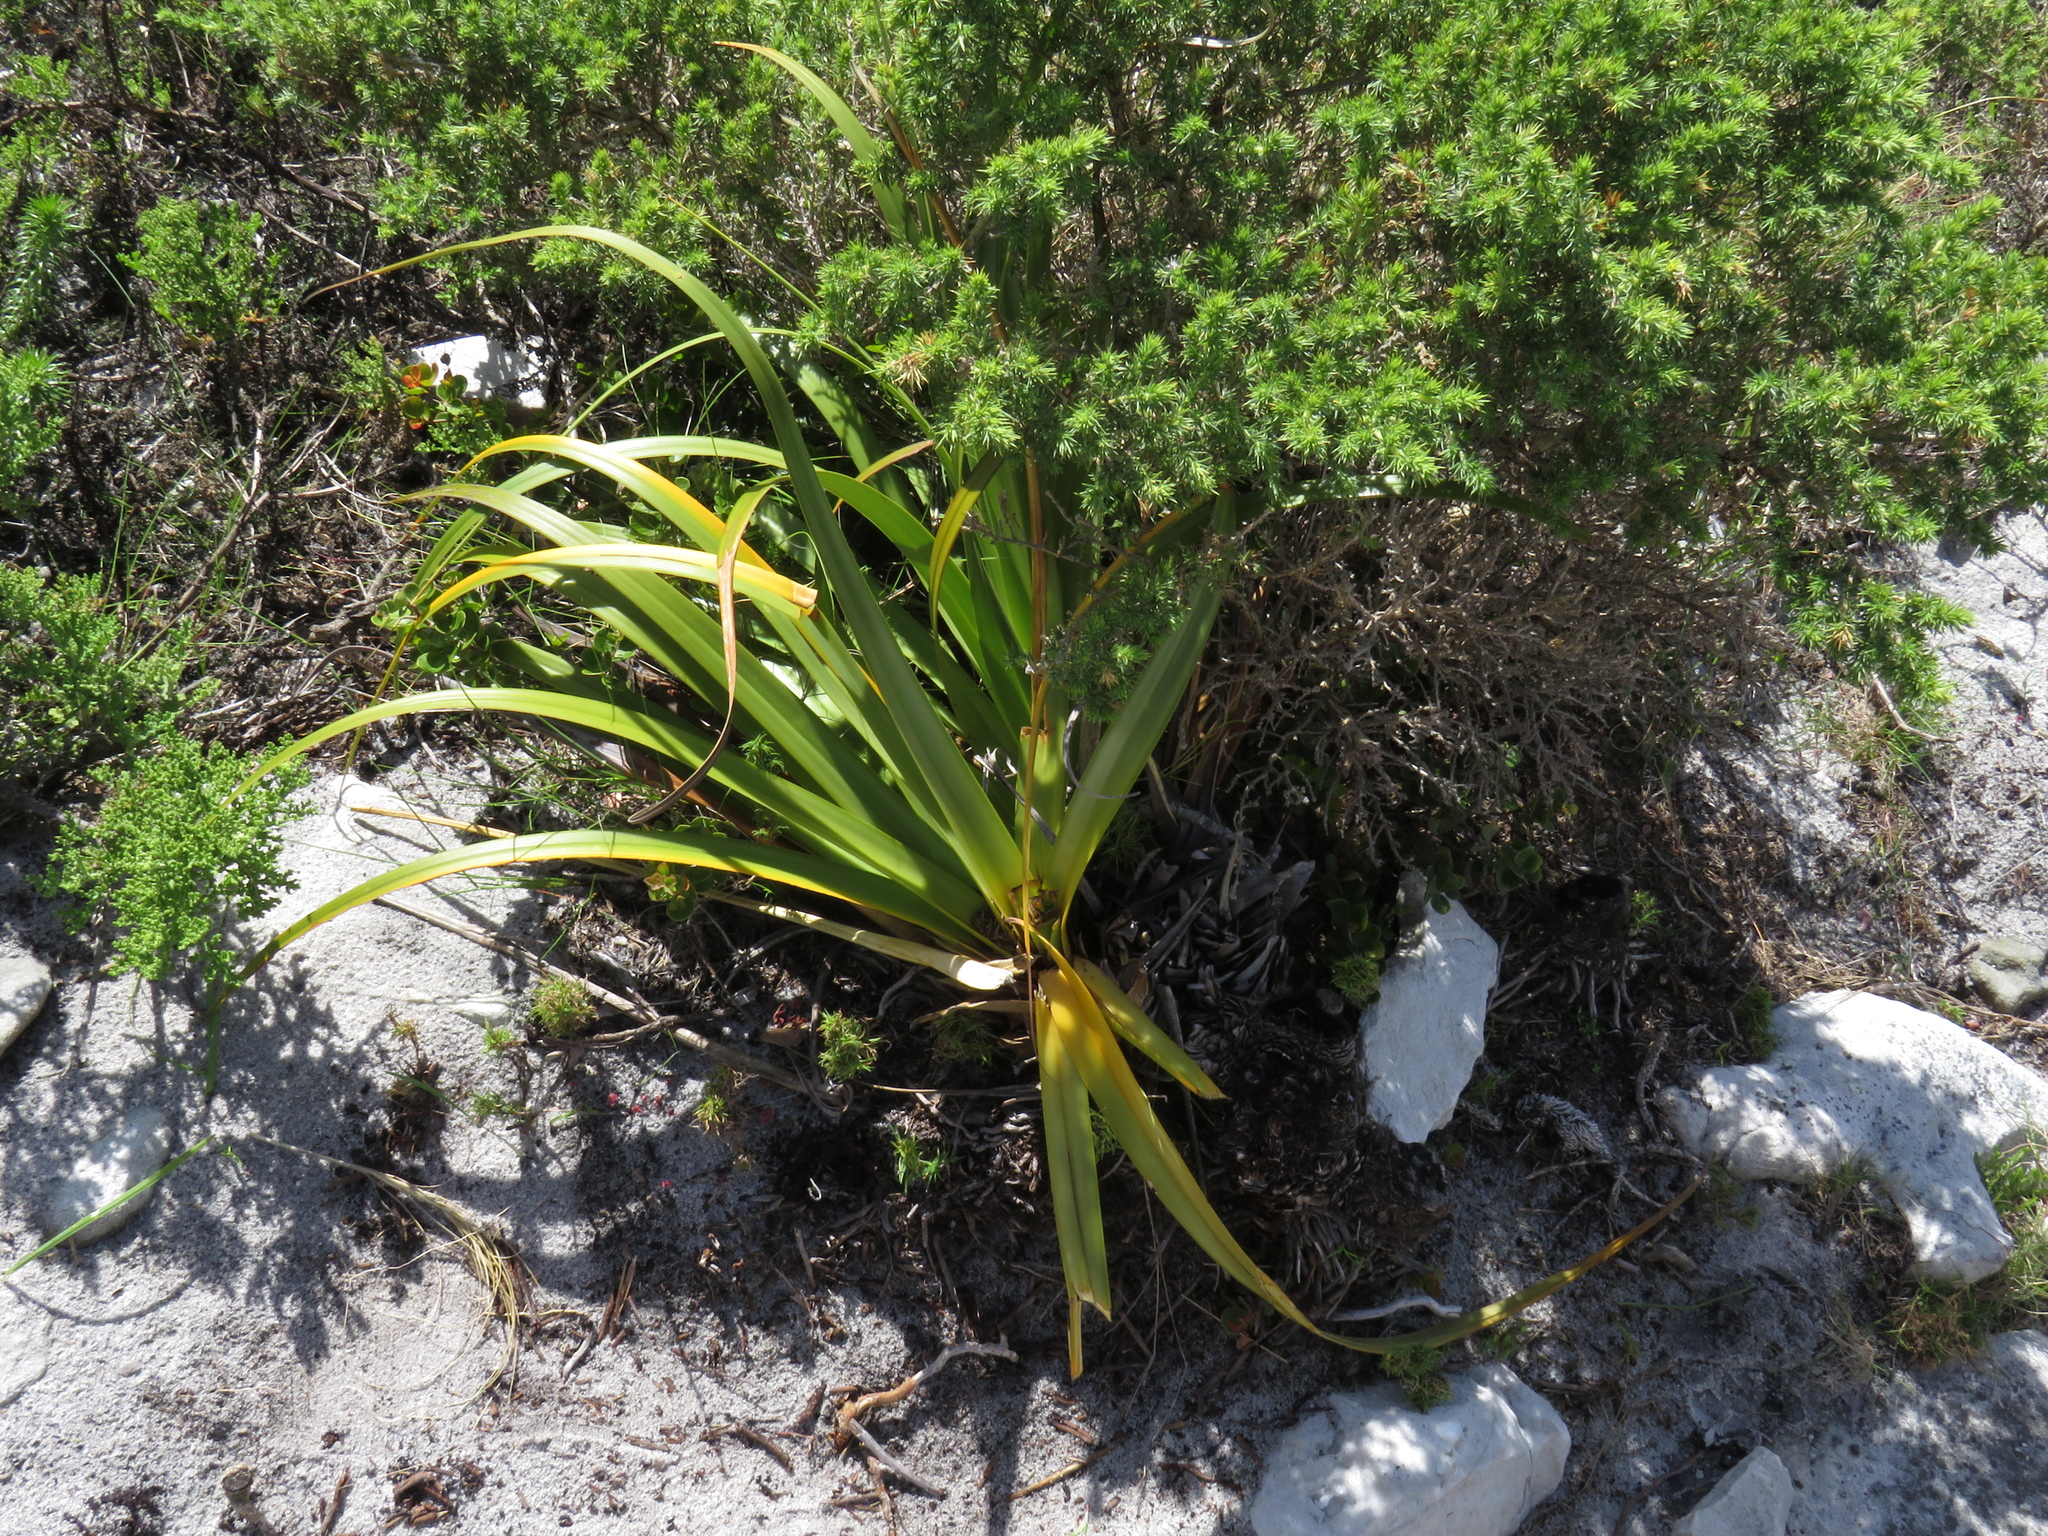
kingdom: Plantae
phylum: Tracheophyta
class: Liliopsida
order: Poales
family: Cyperaceae
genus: Tetraria
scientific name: Tetraria thermalis
